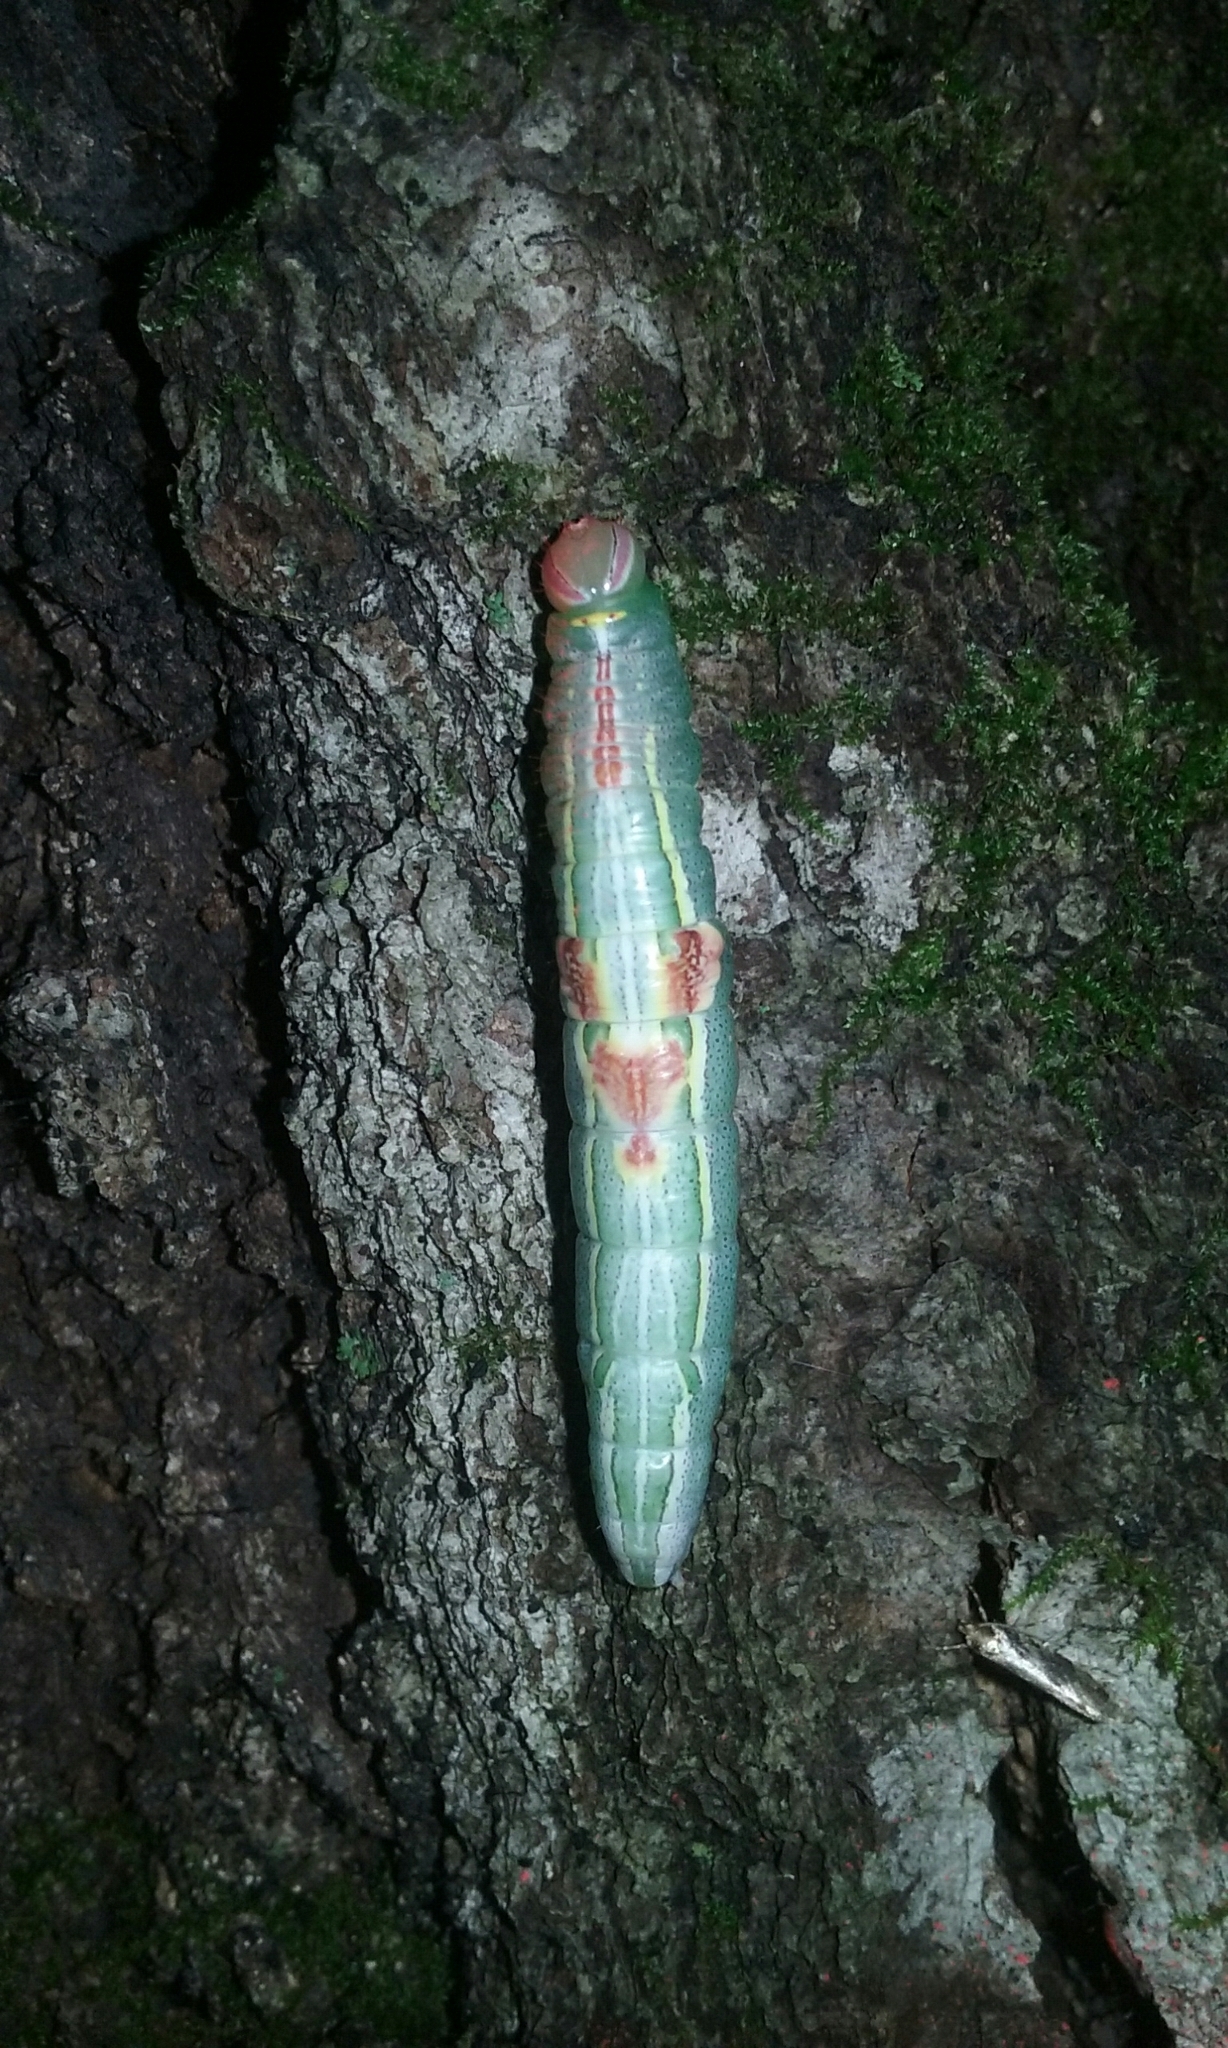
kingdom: Animalia
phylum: Arthropoda
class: Insecta
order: Lepidoptera
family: Notodontidae
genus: Disphragis
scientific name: Disphragis Cecrita guttivitta
